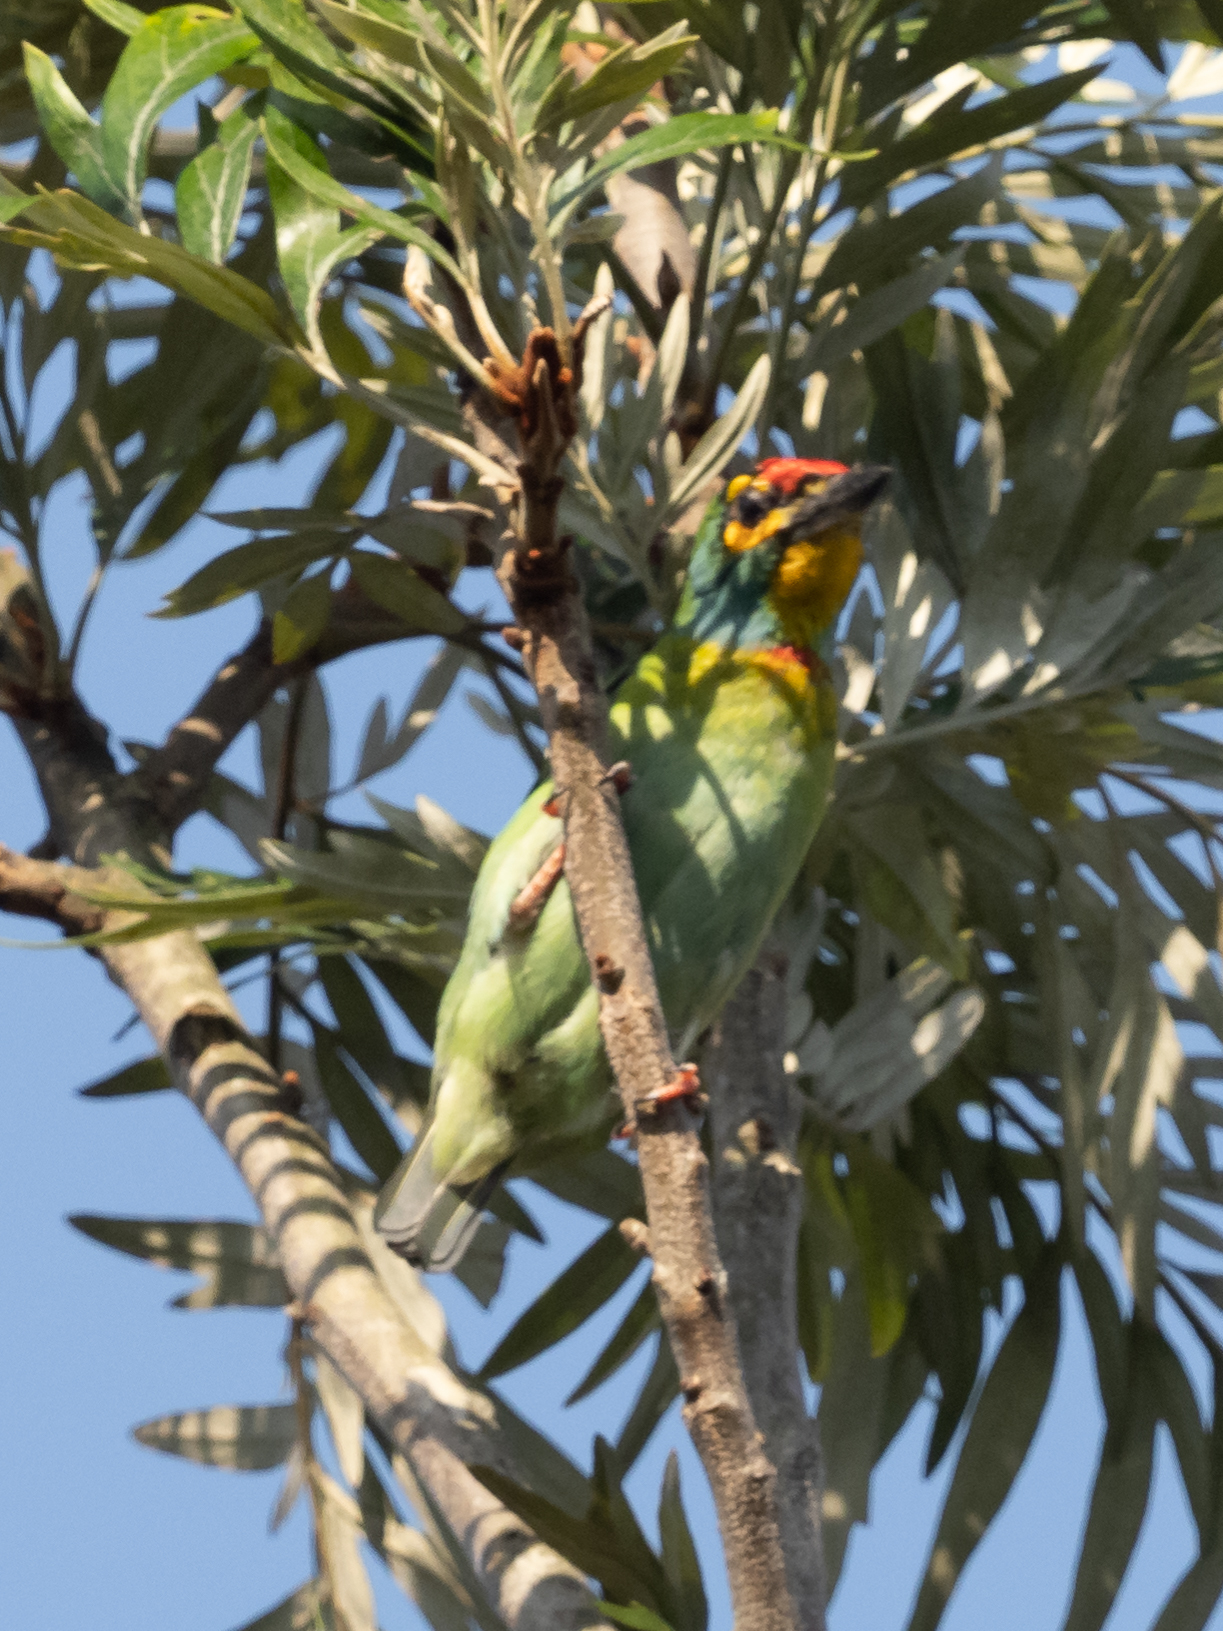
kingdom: Animalia
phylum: Chordata
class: Aves
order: Piciformes
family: Megalaimidae
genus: Psilopogon
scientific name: Psilopogon rubricapillus
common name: Crimson-fronted barbet
